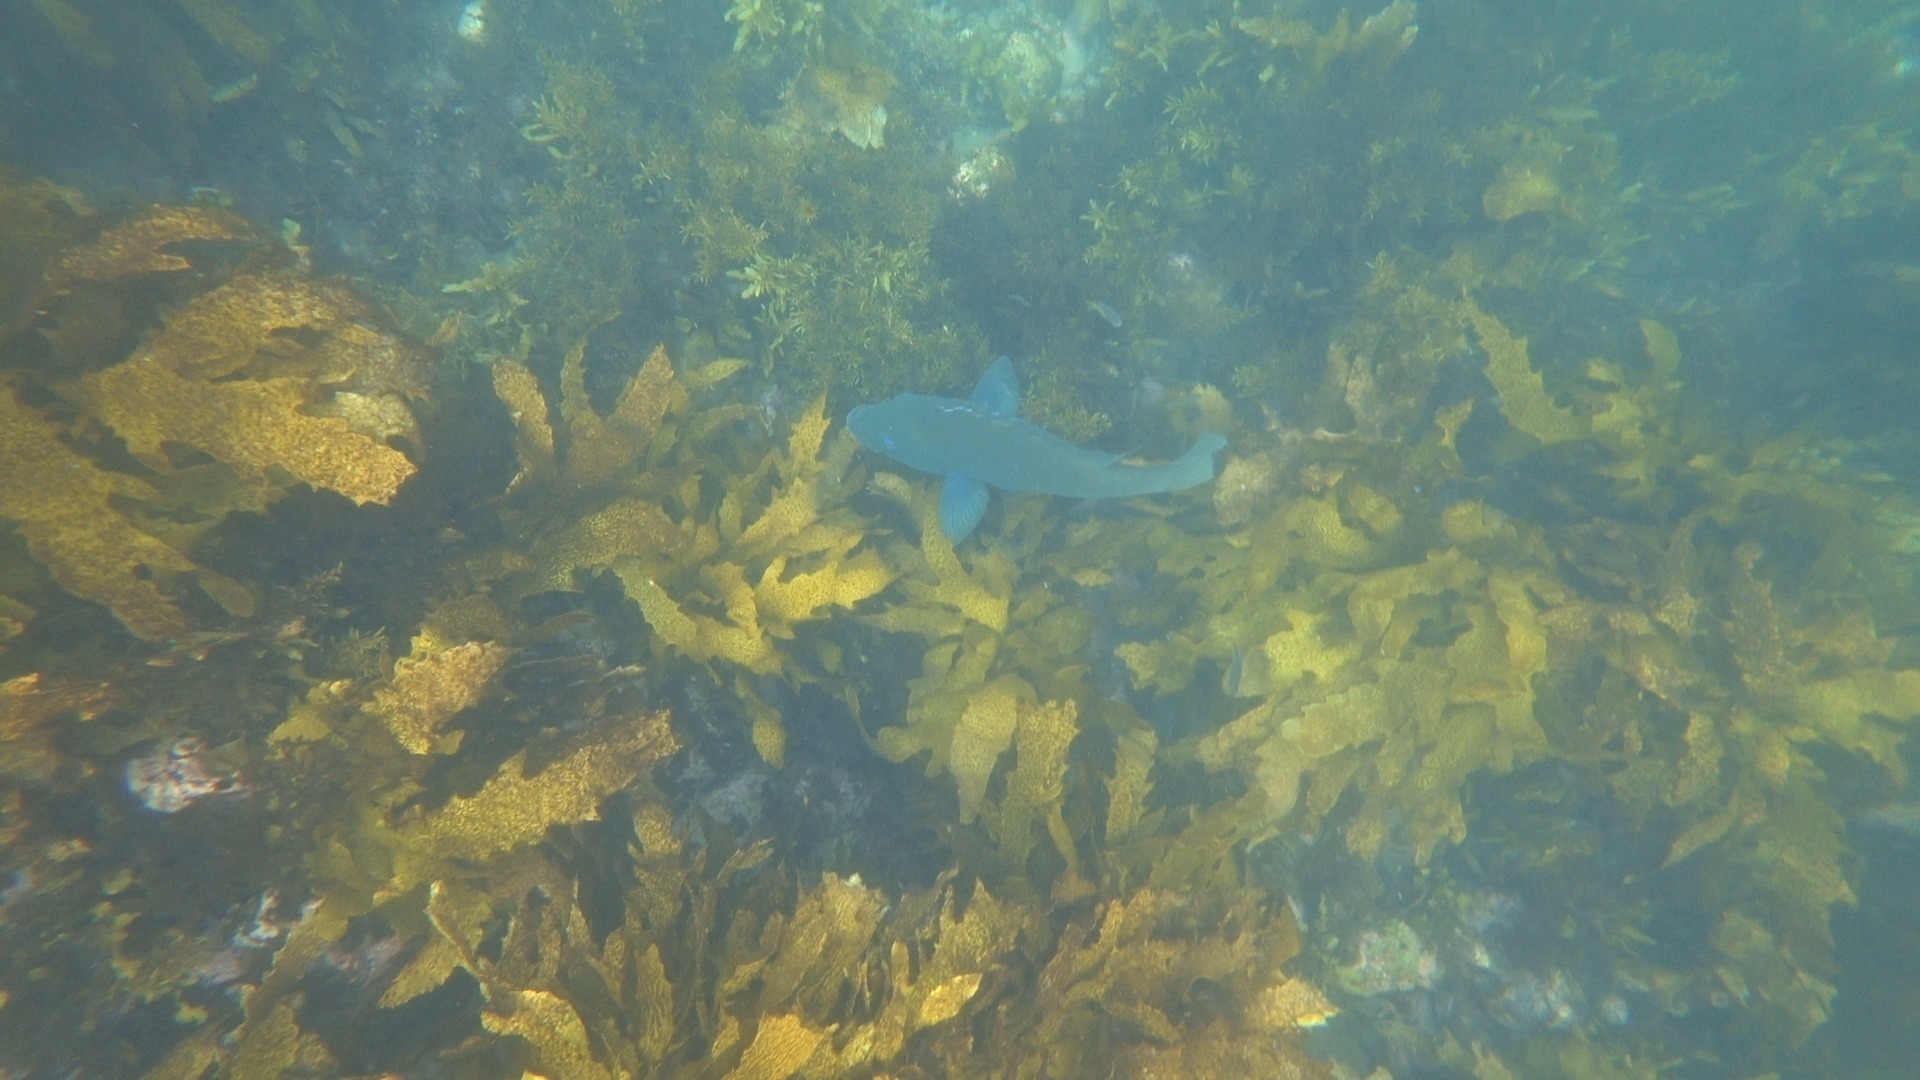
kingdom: Animalia
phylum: Chordata
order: Perciformes
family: Labridae
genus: Achoerodus
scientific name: Achoerodus viridis
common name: Brown groper
